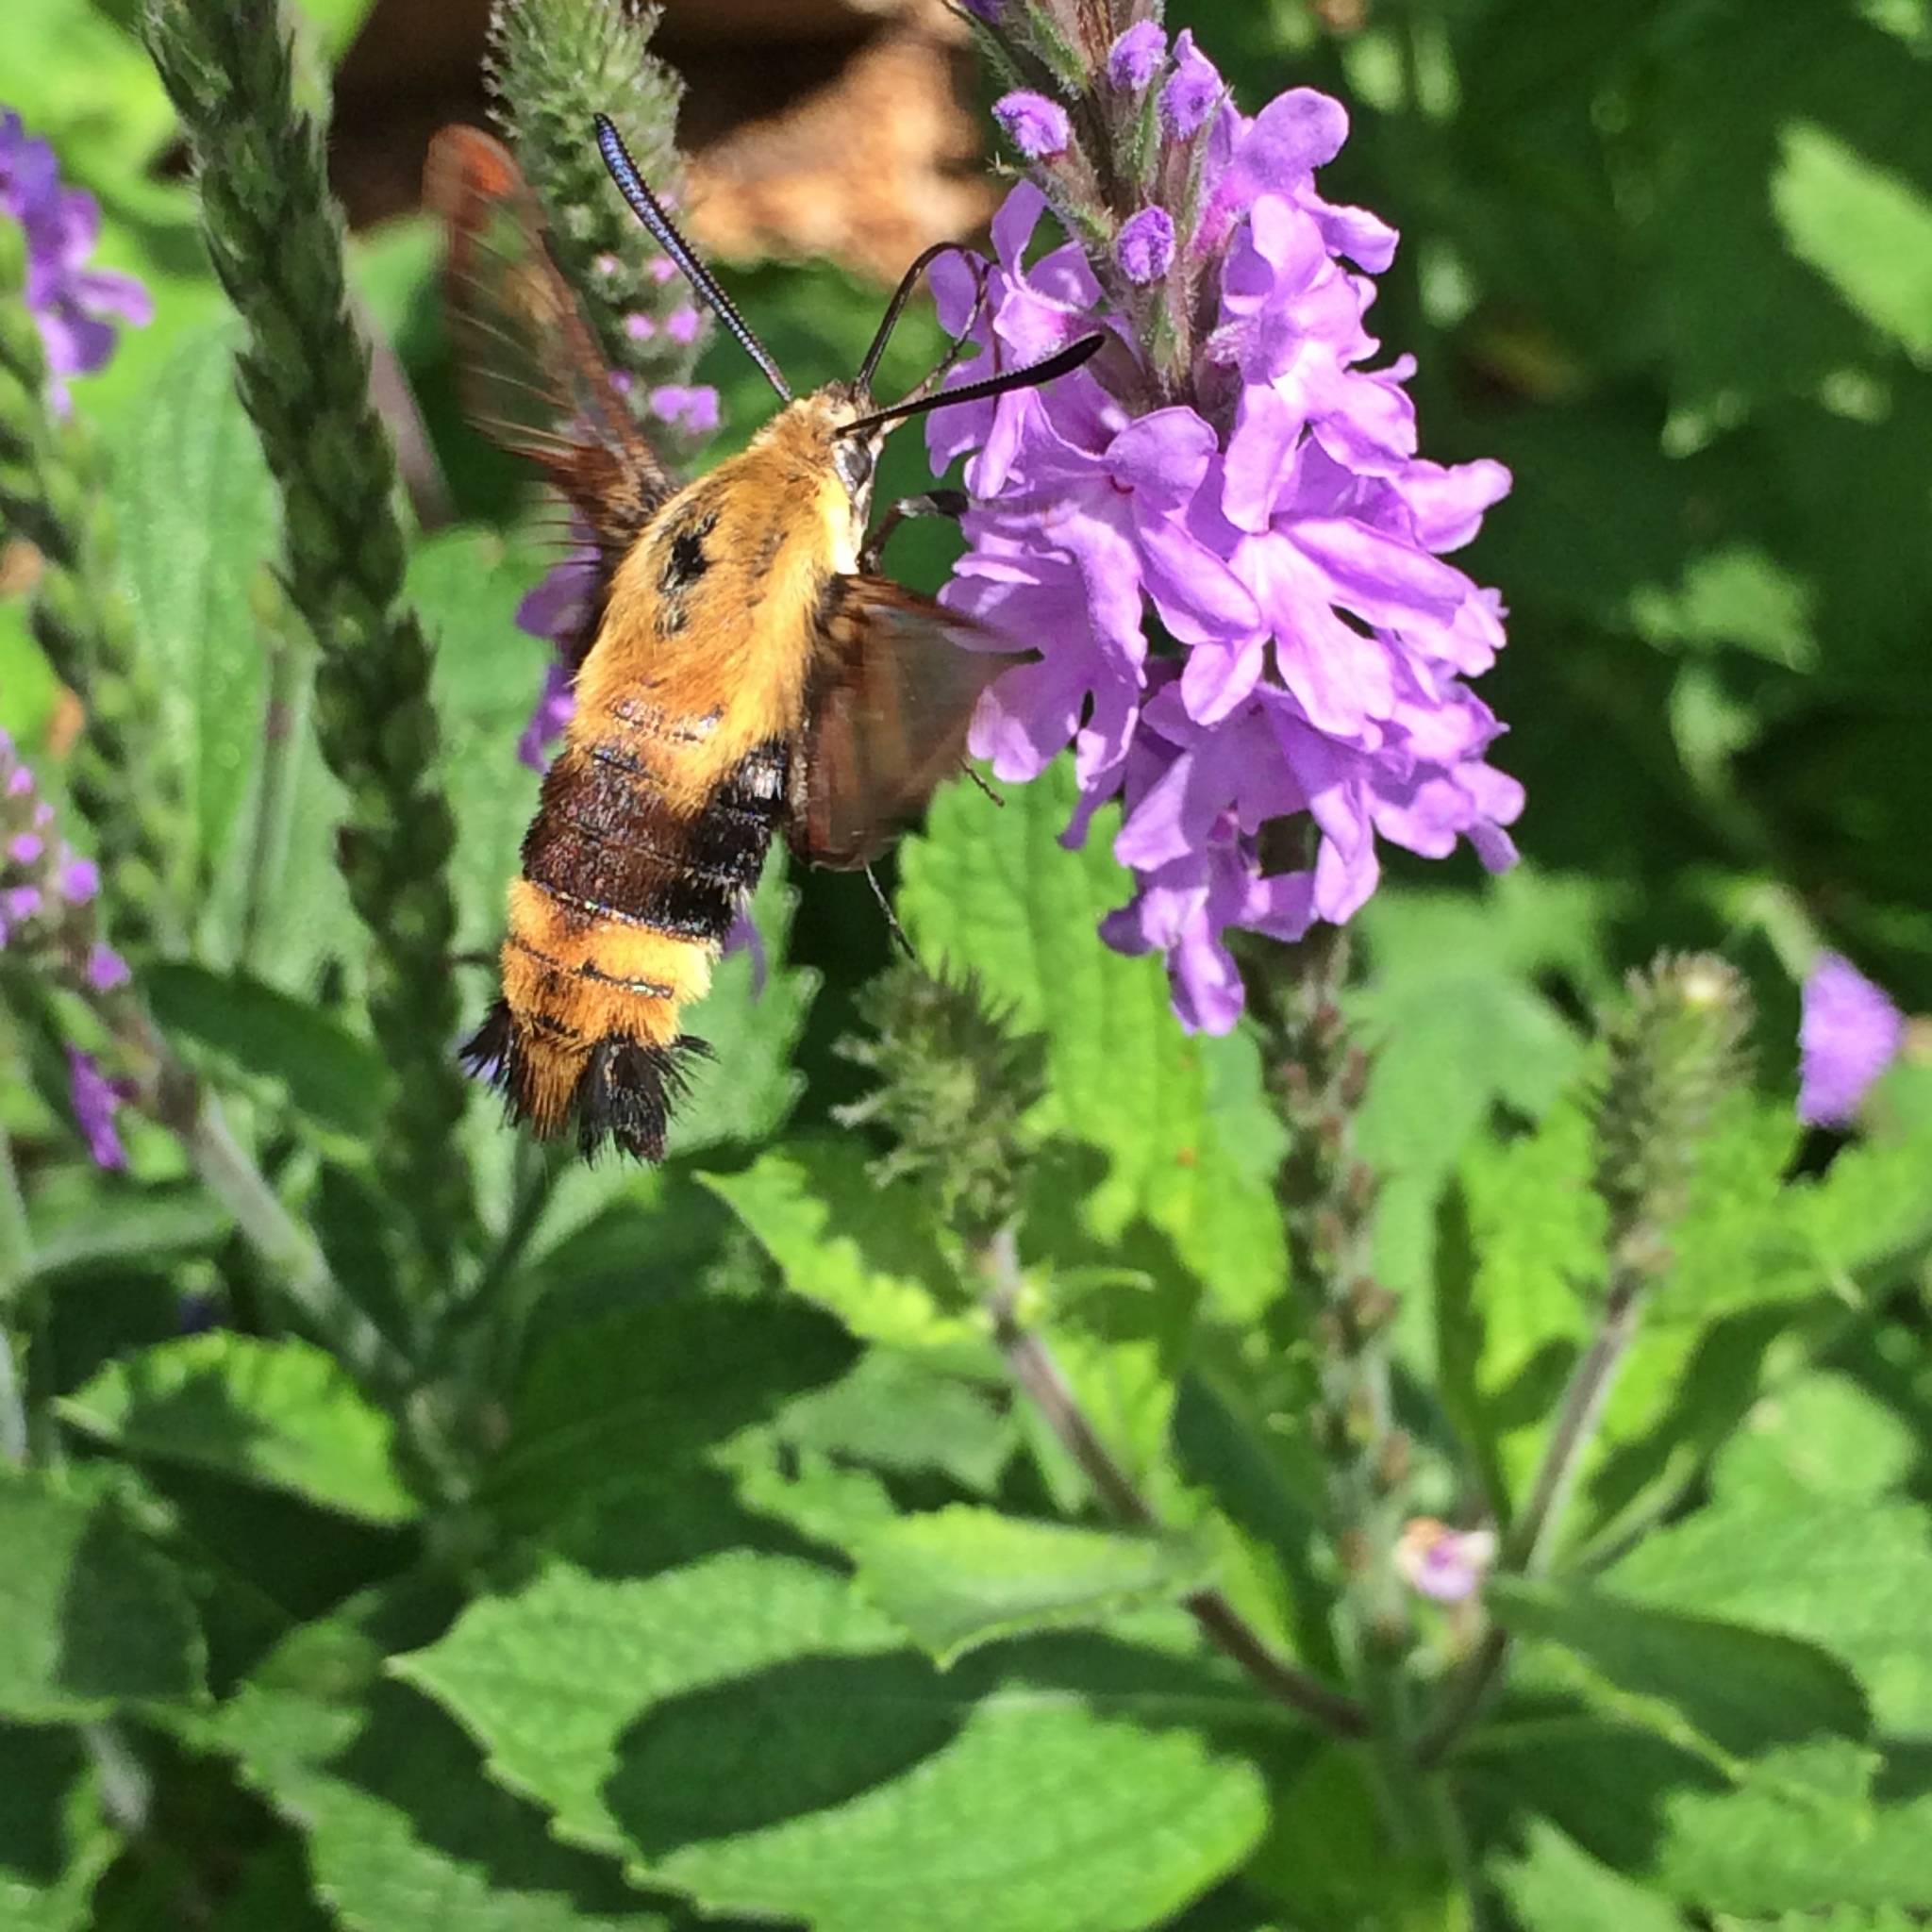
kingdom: Animalia
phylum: Arthropoda
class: Insecta
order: Lepidoptera
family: Sphingidae
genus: Hemaris
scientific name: Hemaris diffinis
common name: Bumblebee moth
